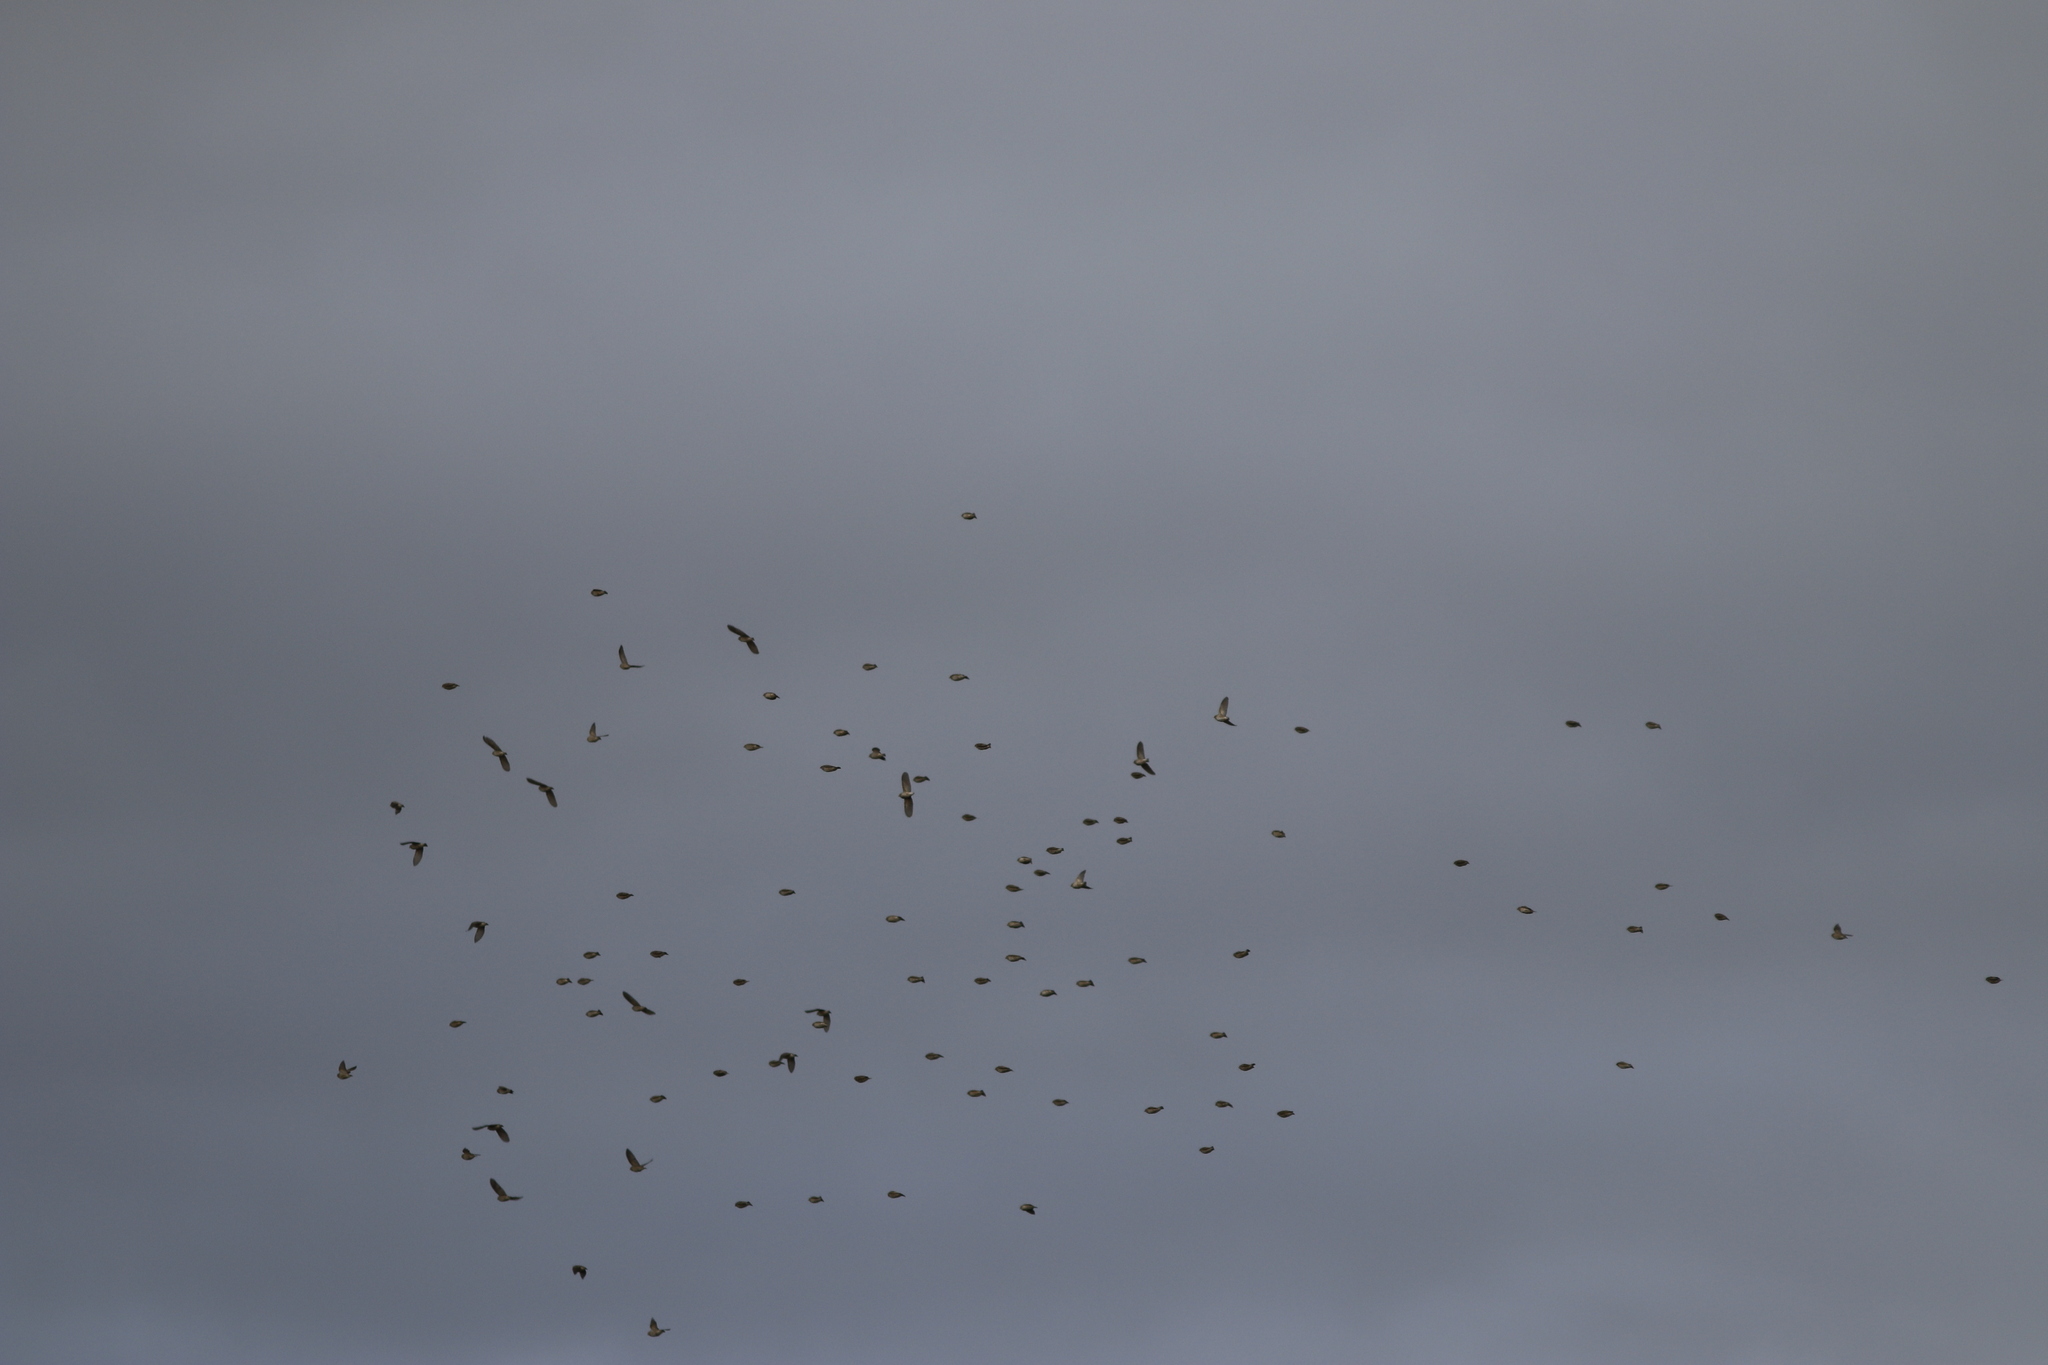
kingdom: Animalia
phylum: Chordata
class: Aves
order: Passeriformes
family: Sturnidae
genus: Creatophora
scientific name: Creatophora cinerea
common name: Wattled starling
